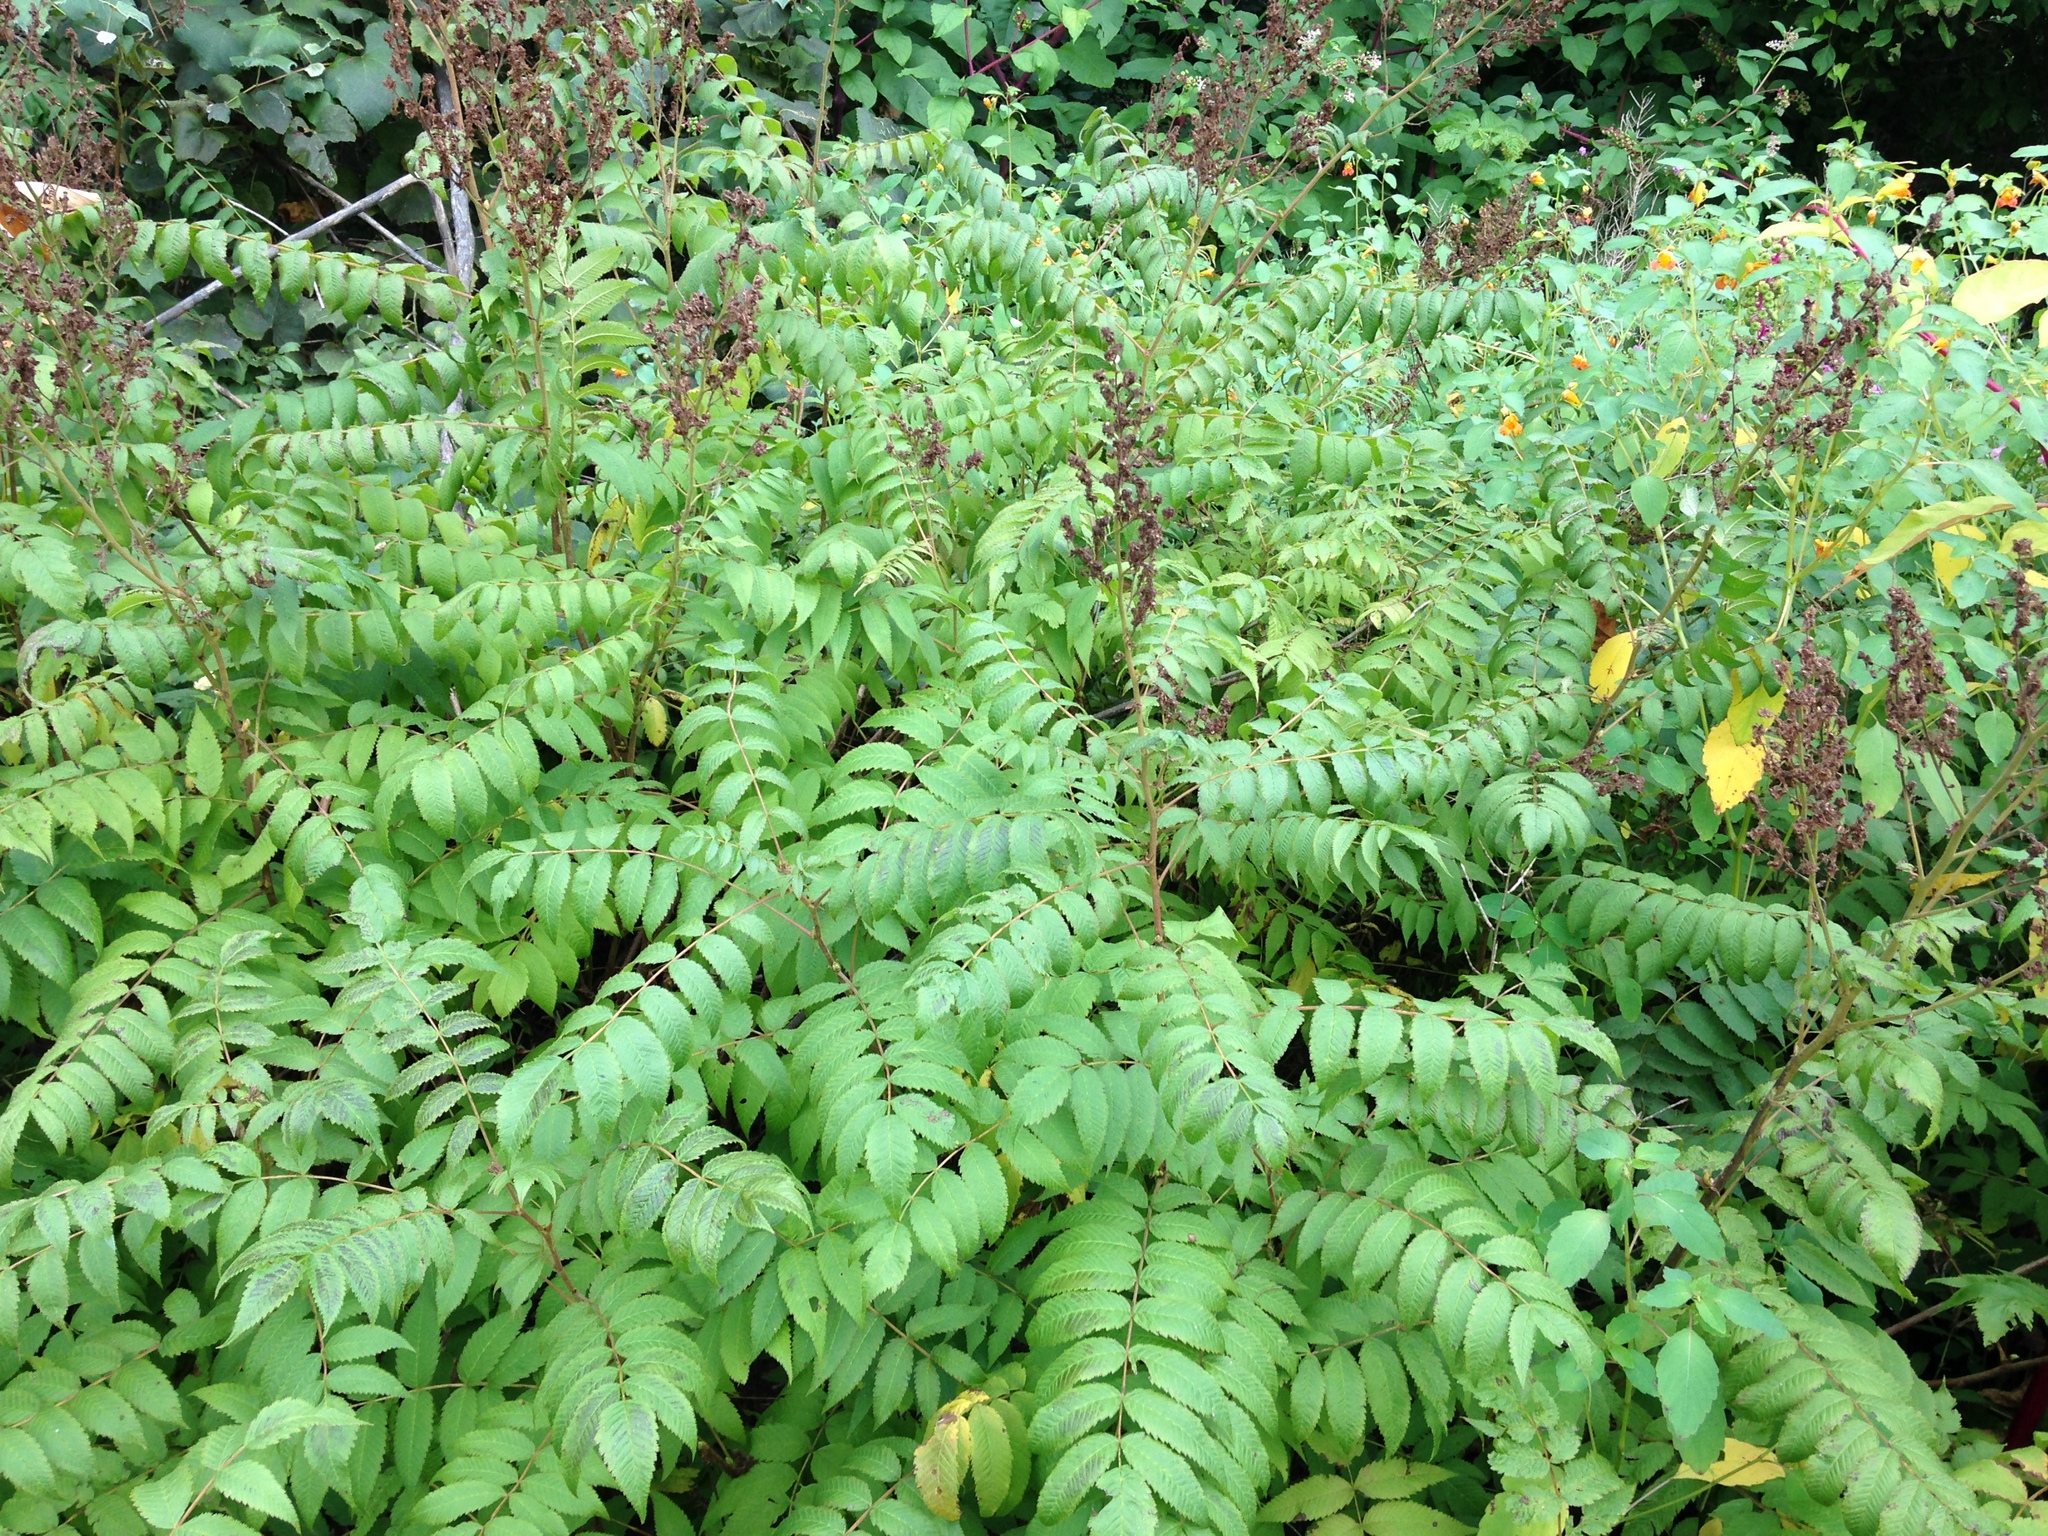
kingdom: Plantae
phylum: Tracheophyta
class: Magnoliopsida
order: Rosales
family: Rosaceae
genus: Sorbaria
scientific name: Sorbaria sorbifolia
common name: False spiraea
